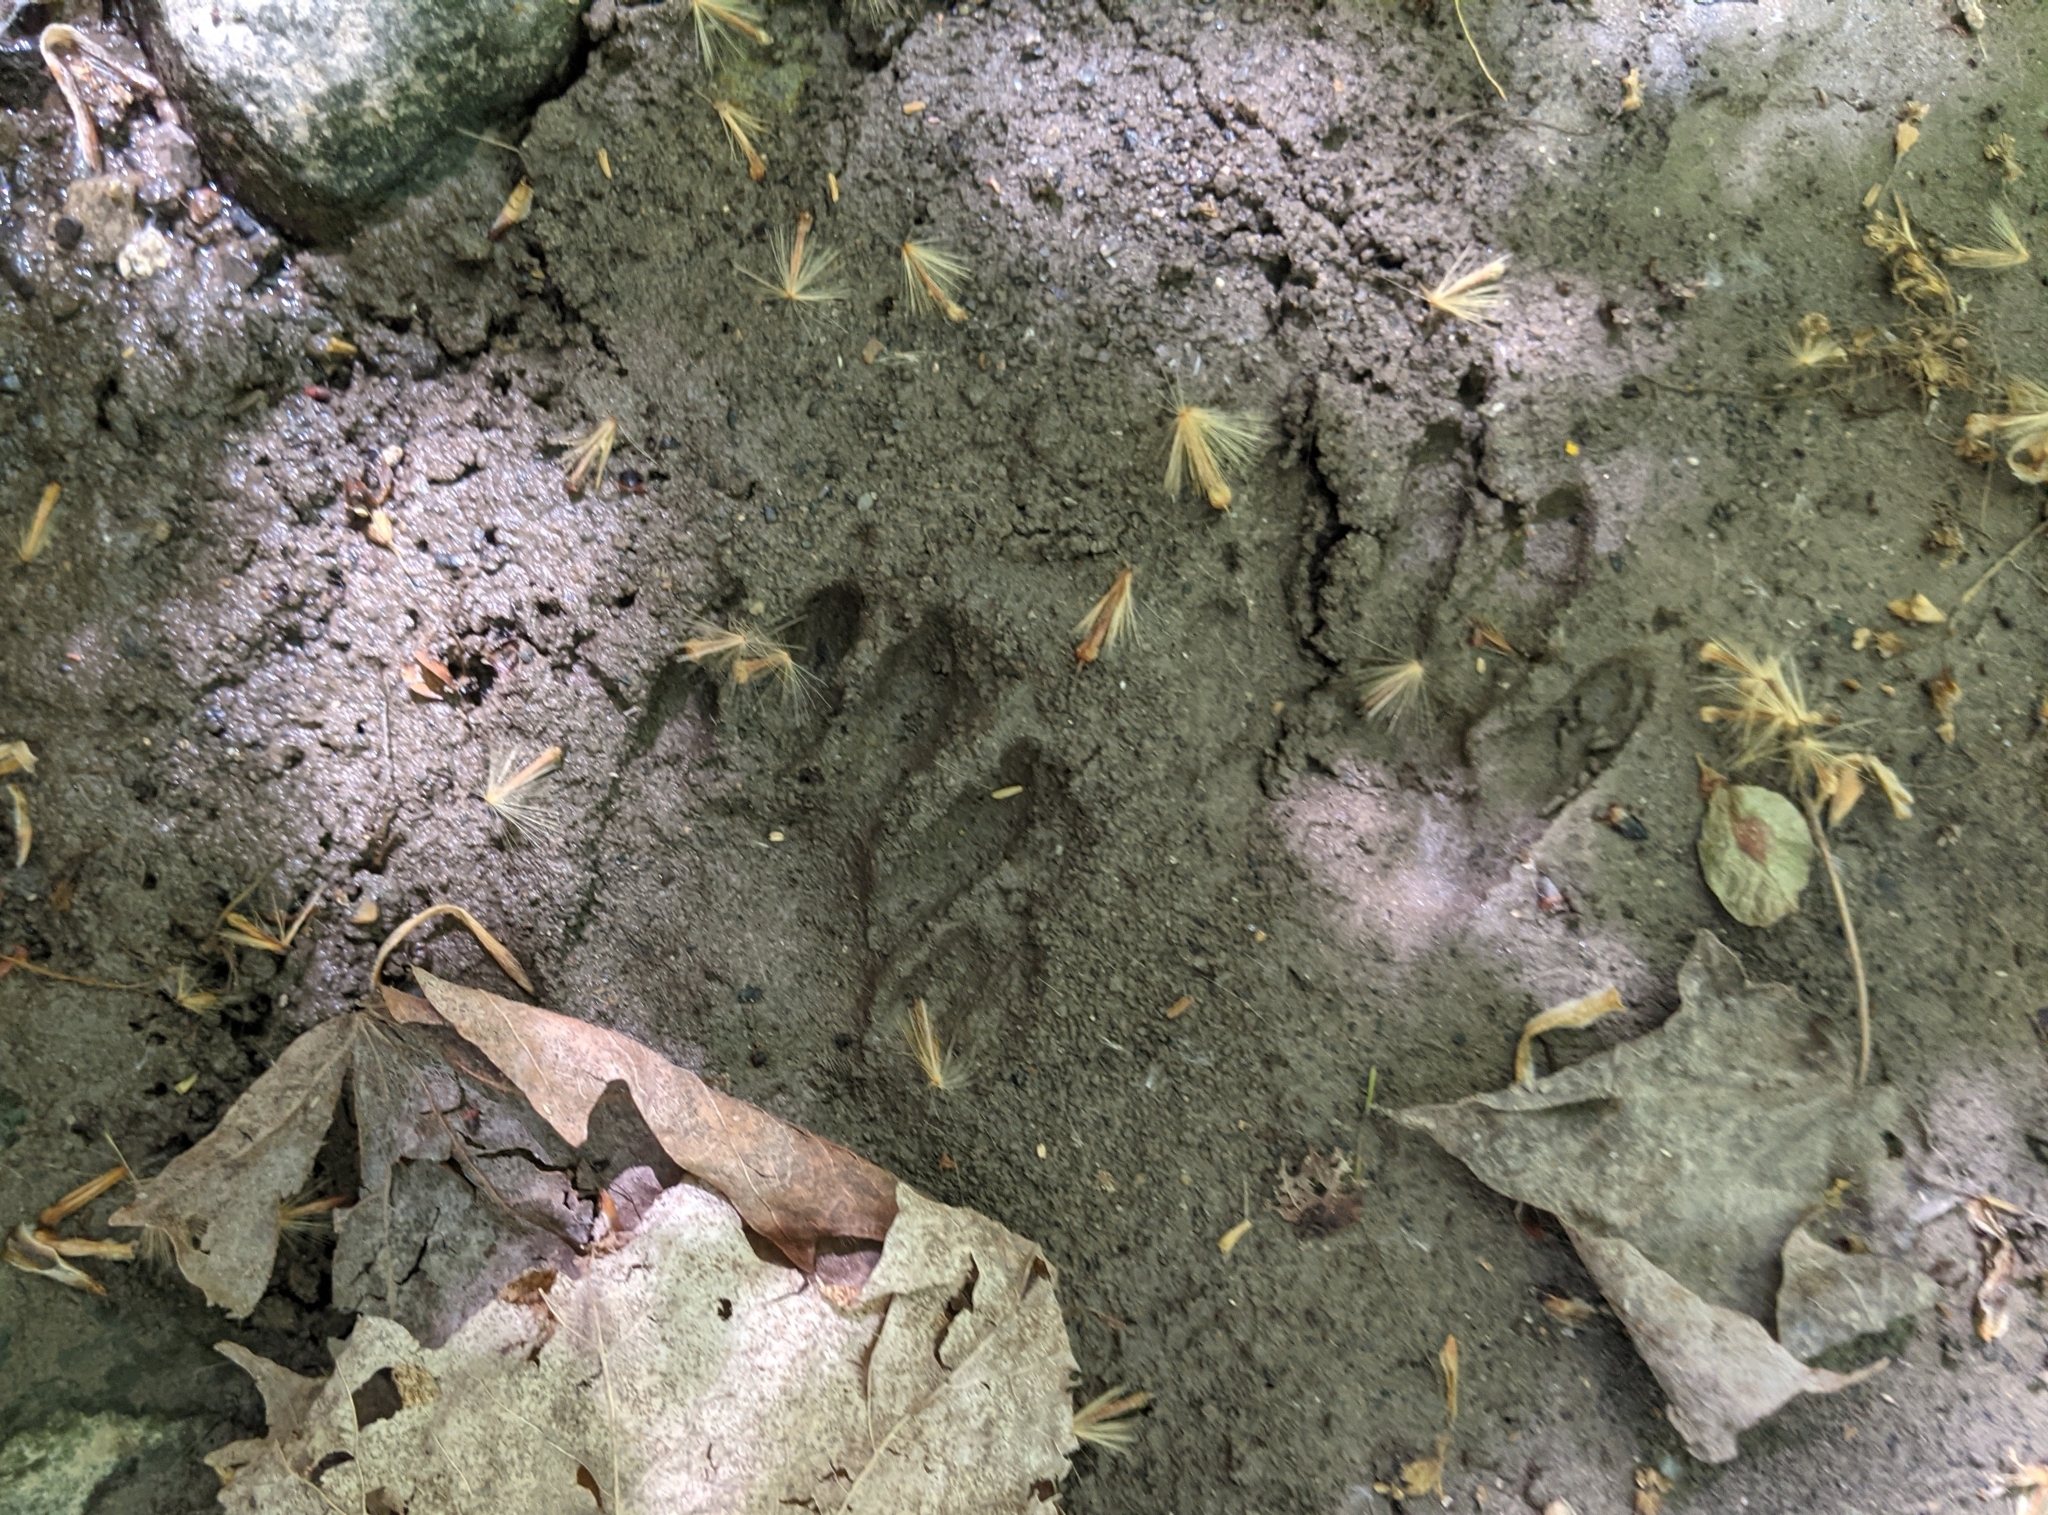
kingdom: Animalia
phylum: Chordata
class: Mammalia
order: Carnivora
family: Procyonidae
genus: Procyon
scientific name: Procyon lotor
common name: Raccoon
